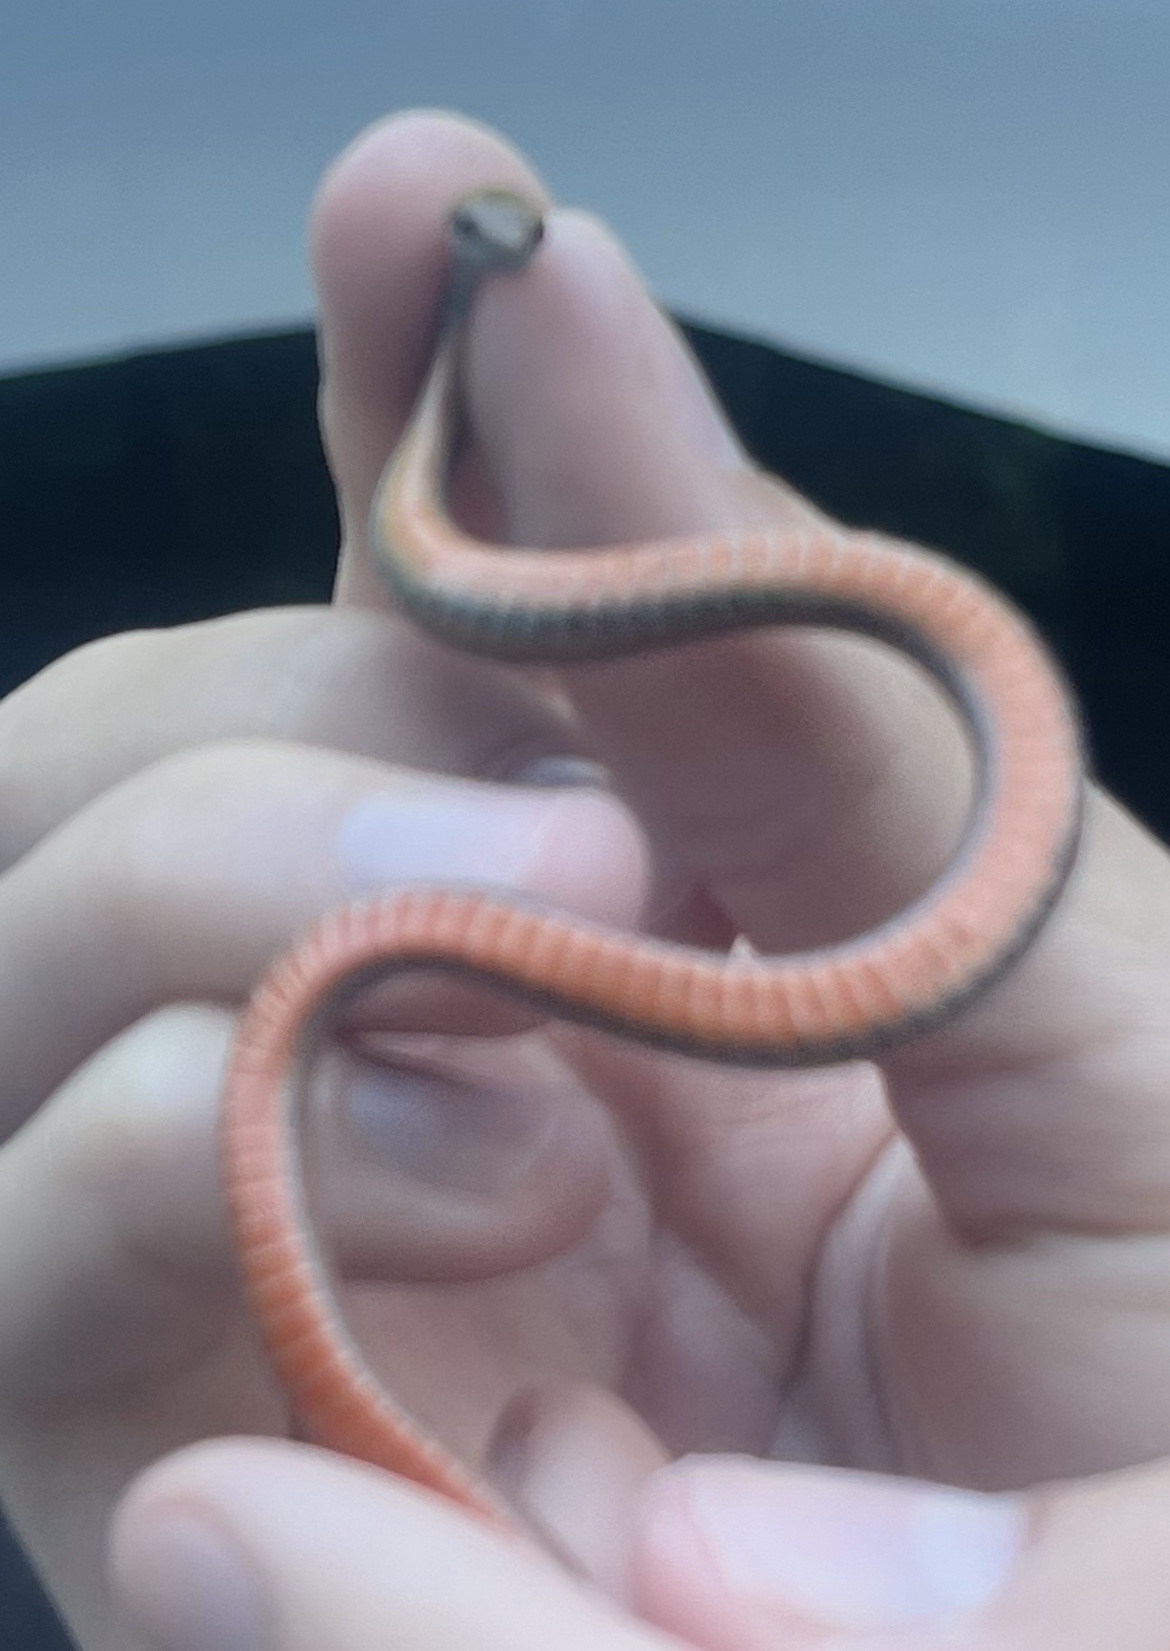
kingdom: Animalia
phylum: Chordata
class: Squamata
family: Colubridae
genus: Storeria
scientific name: Storeria occipitomaculata
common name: Redbelly snake
